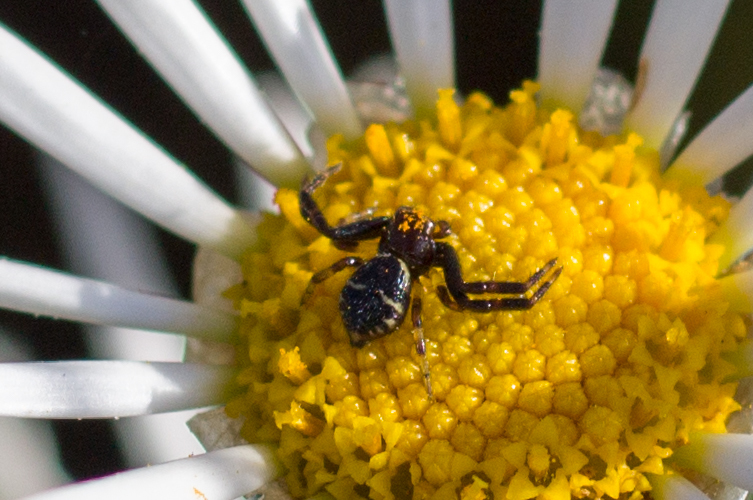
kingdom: Animalia
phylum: Arthropoda
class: Arachnida
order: Araneae
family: Thomisidae
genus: Synema
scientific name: Synema globosum
